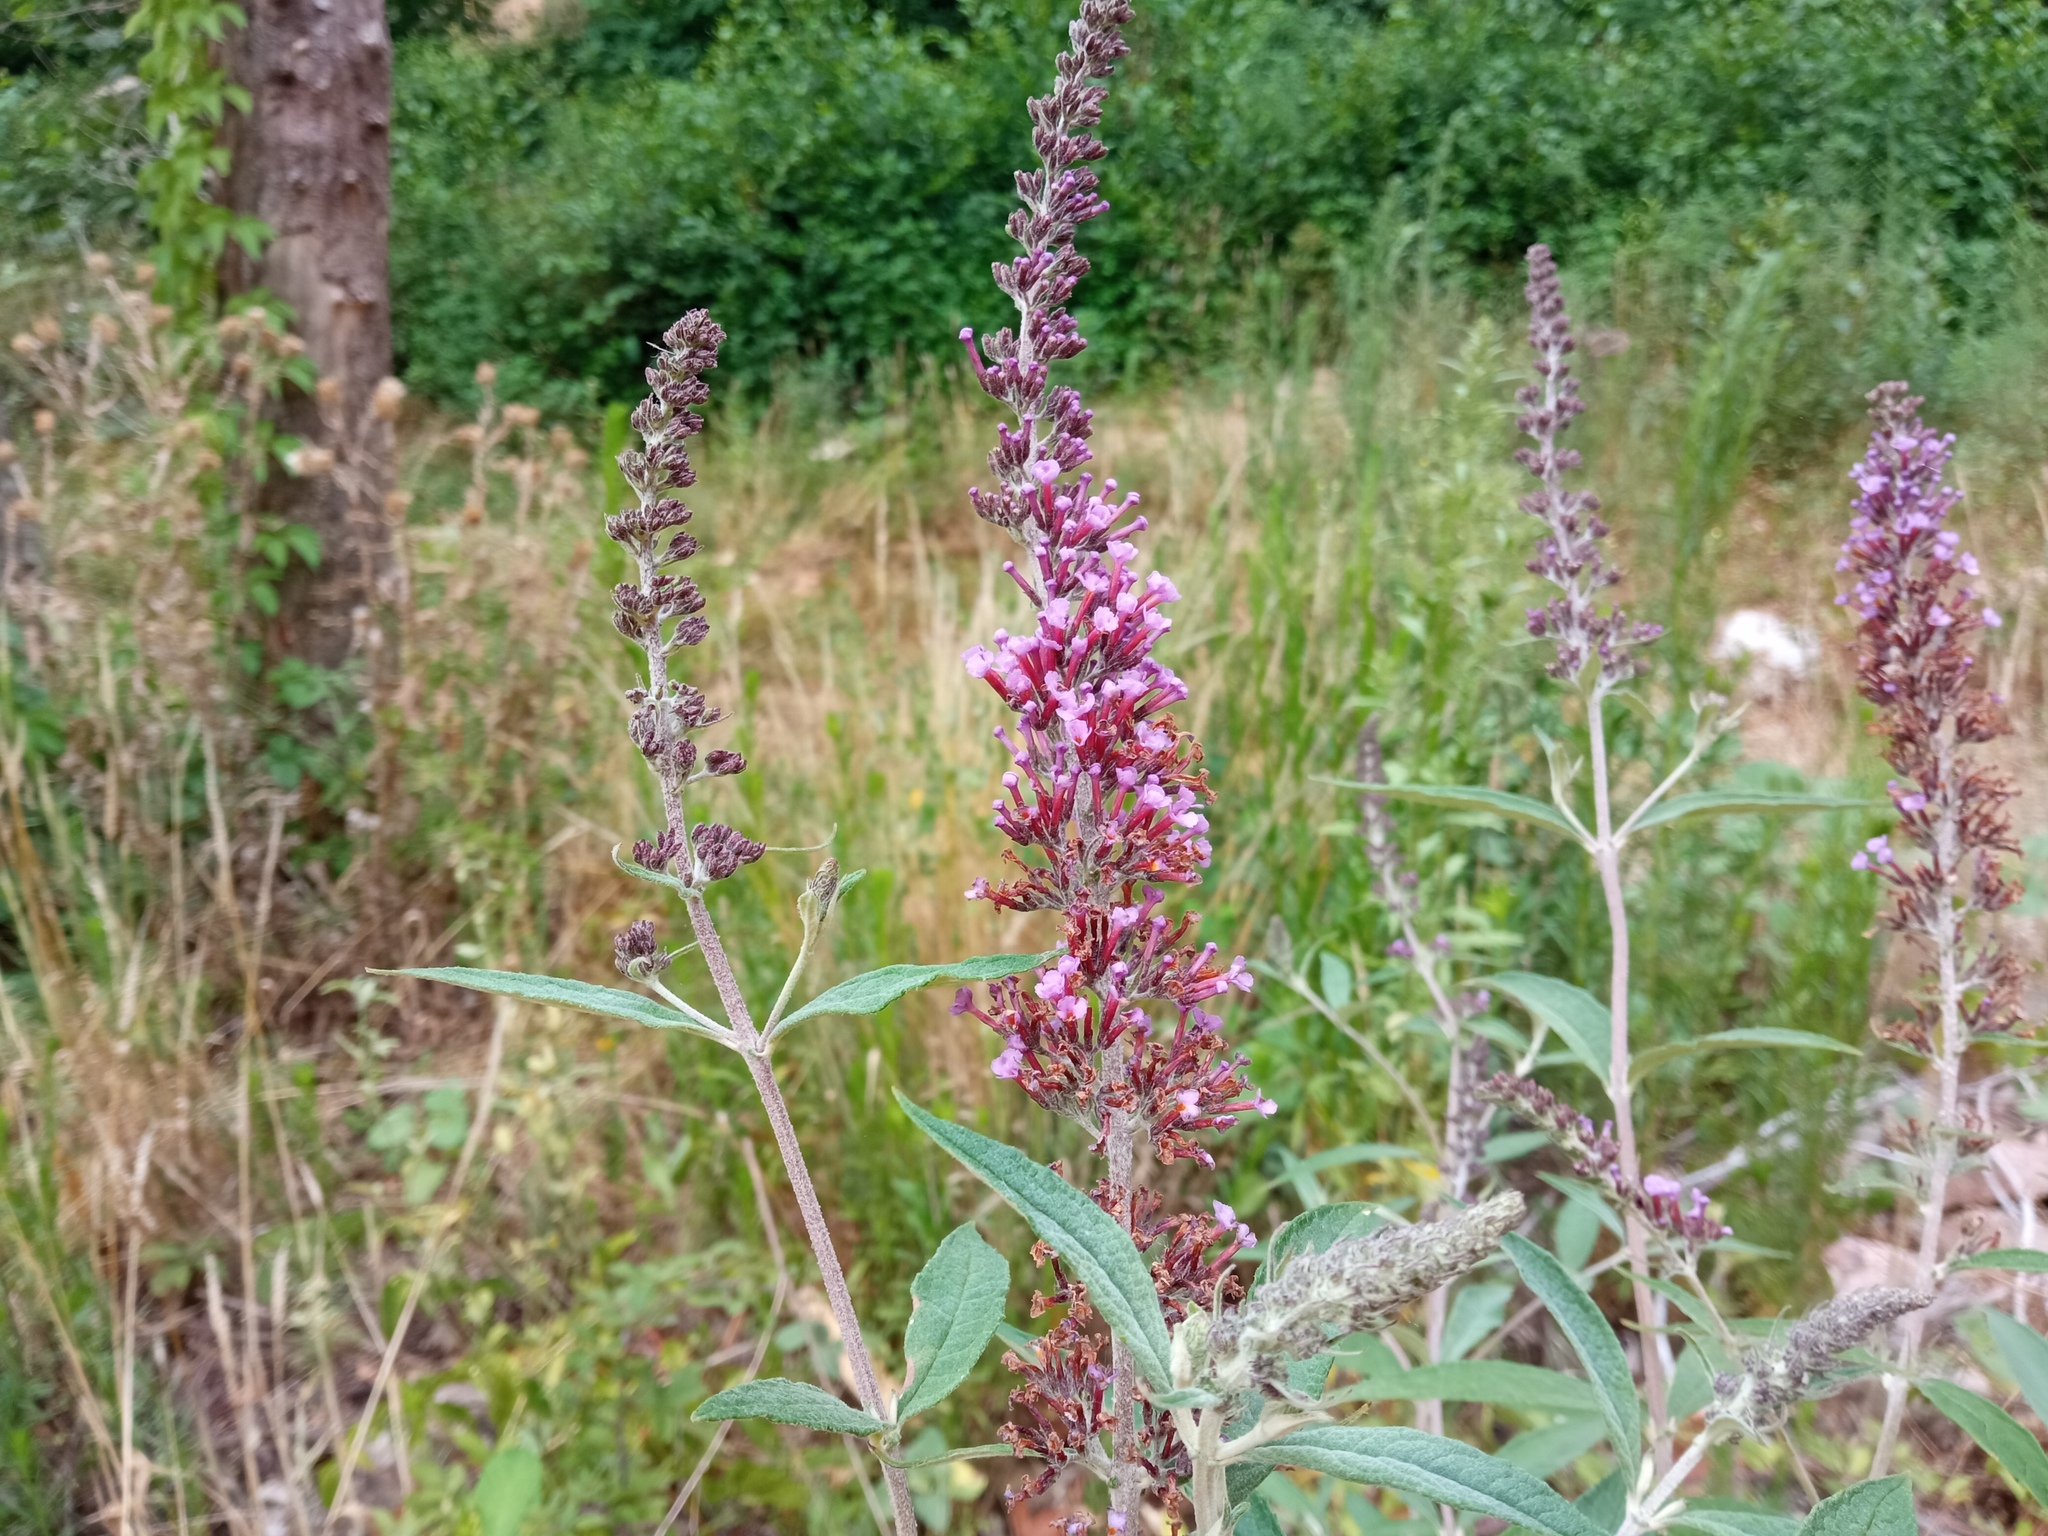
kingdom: Plantae
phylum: Tracheophyta
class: Magnoliopsida
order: Lamiales
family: Scrophulariaceae
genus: Buddleja
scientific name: Buddleja davidii
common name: Butterfly-bush
